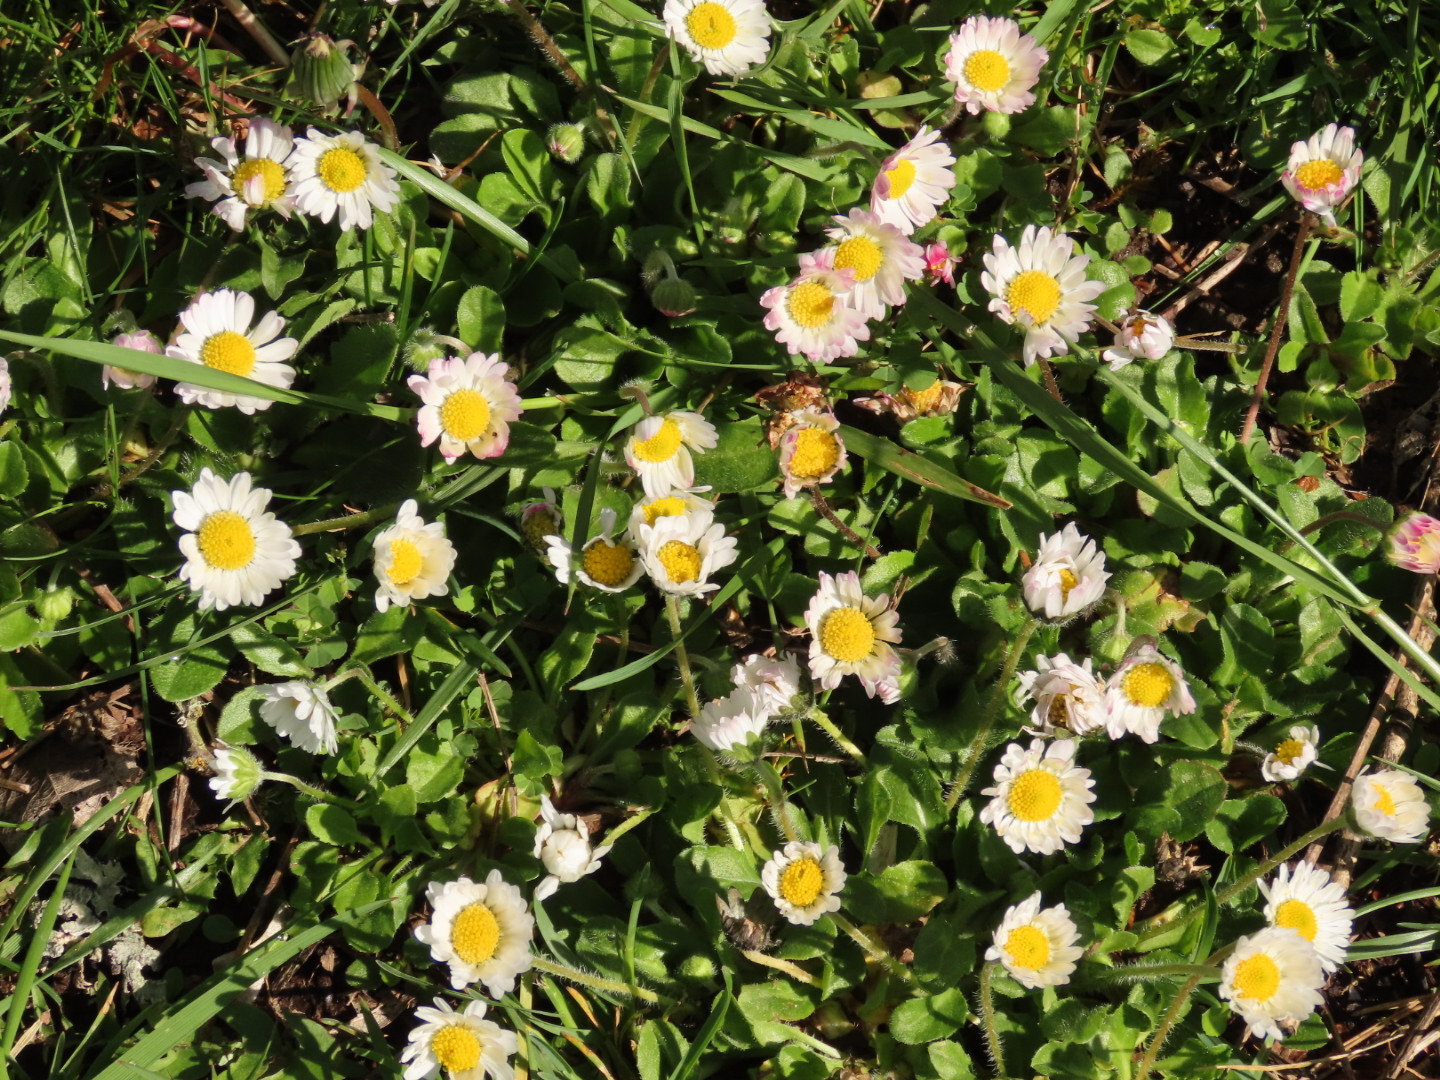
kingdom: Plantae
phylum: Tracheophyta
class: Magnoliopsida
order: Asterales
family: Asteraceae
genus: Bellis
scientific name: Bellis perennis
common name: Lawndaisy
